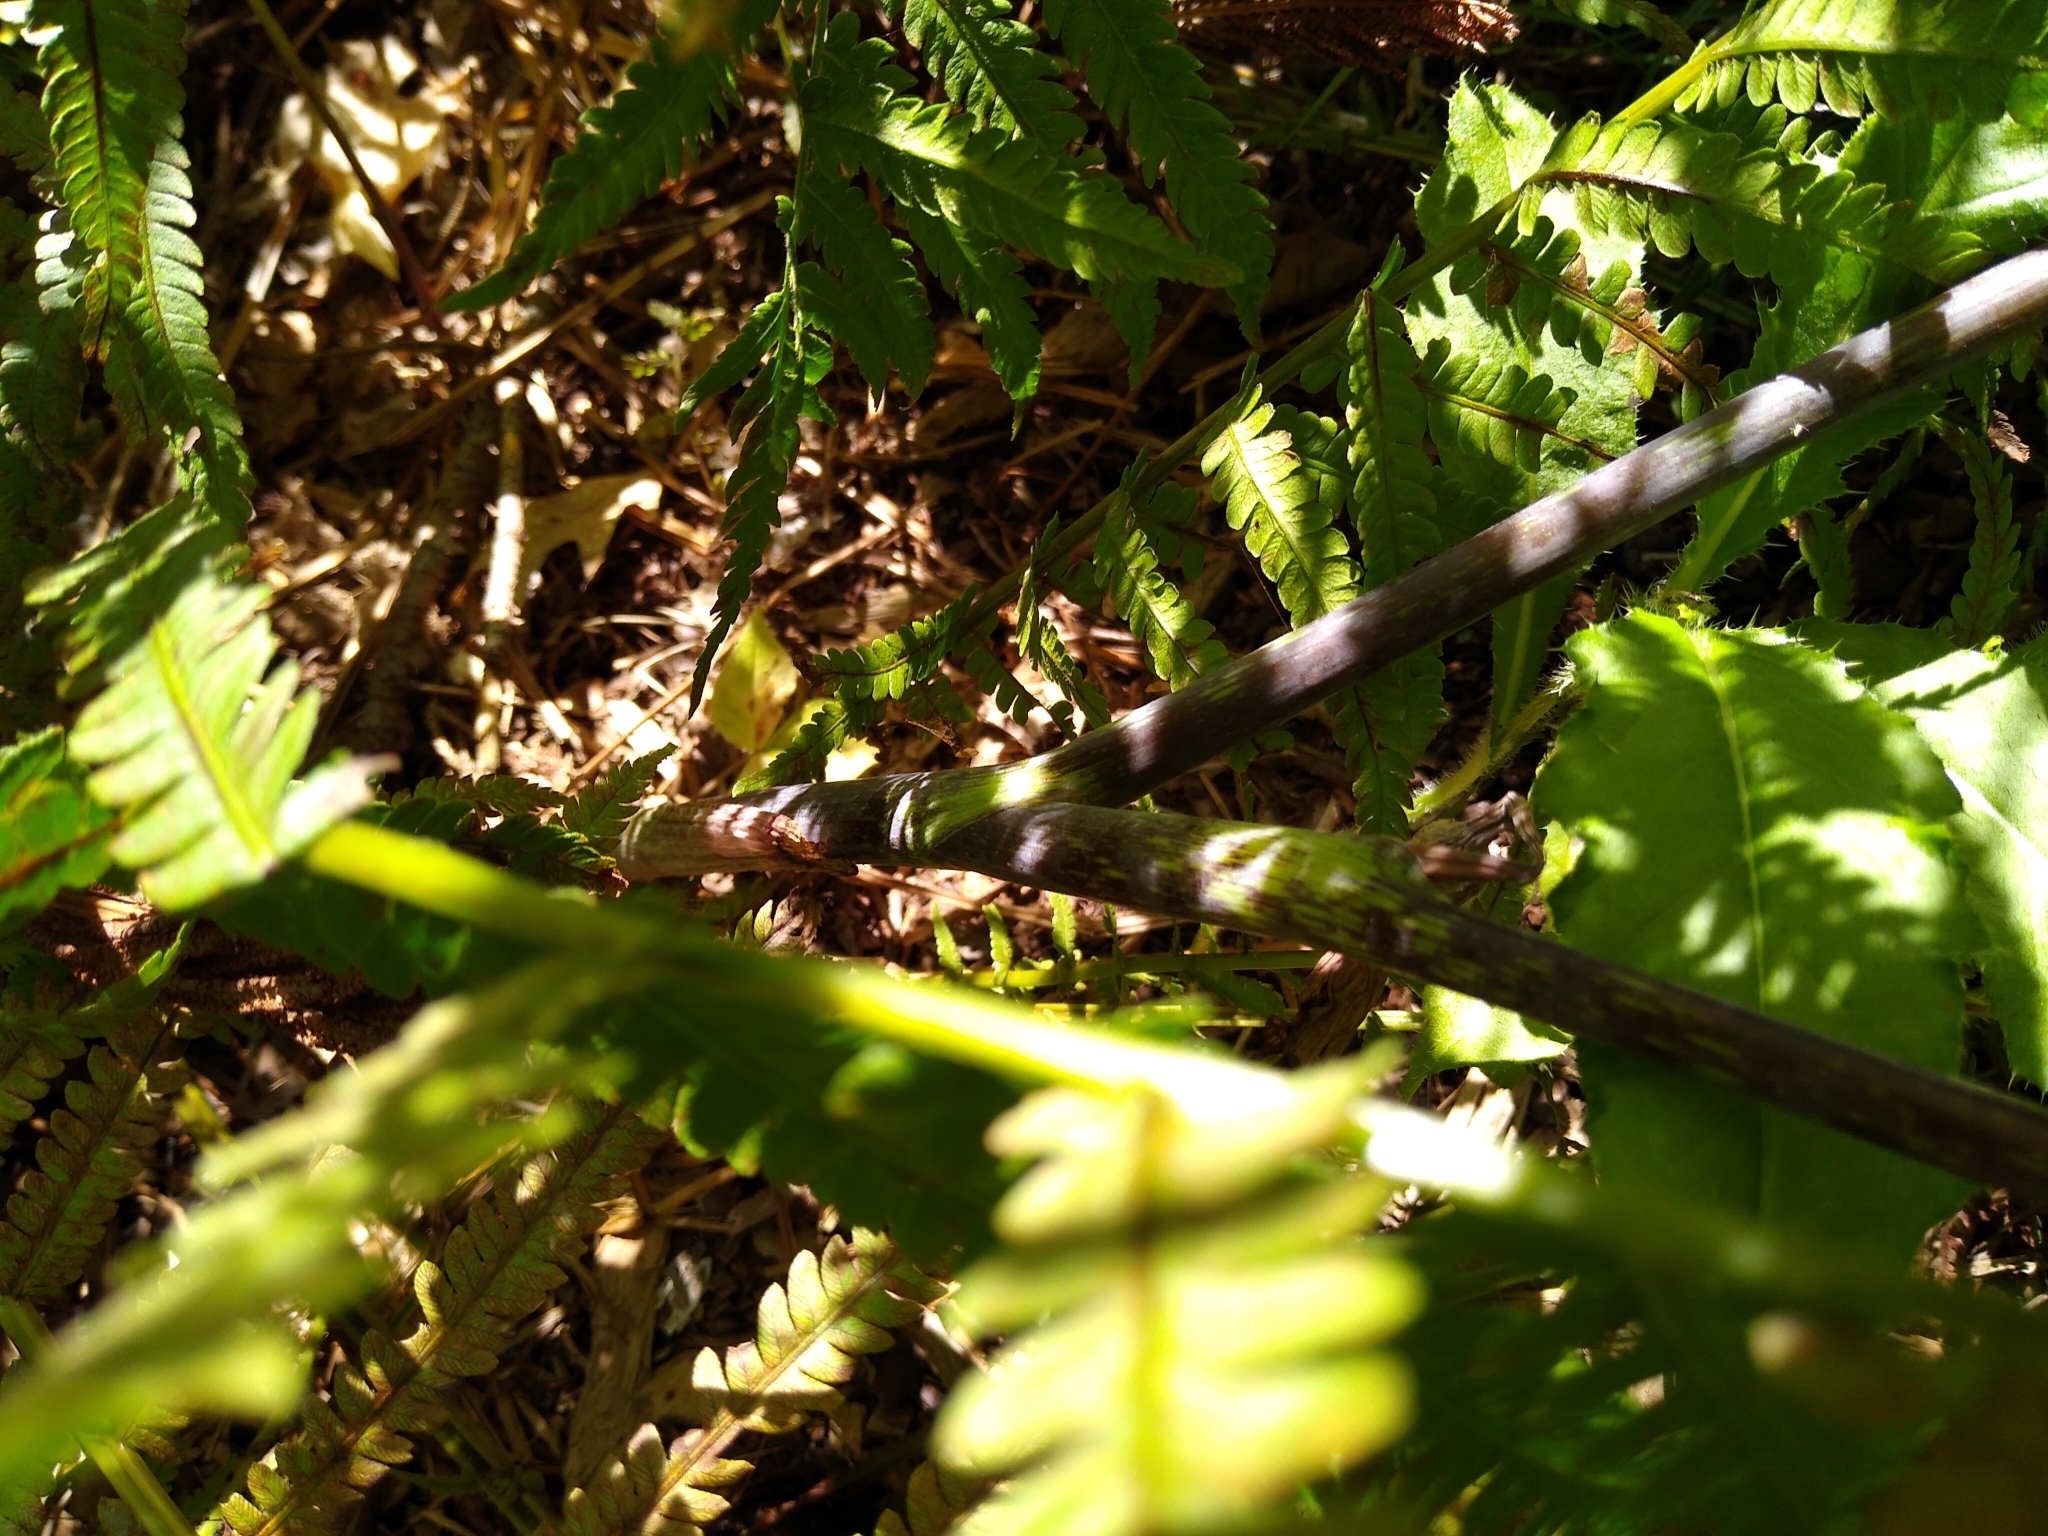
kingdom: Plantae
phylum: Tracheophyta
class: Liliopsida
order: Alismatales
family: Araceae
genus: Arisaema
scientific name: Arisaema triphyllum
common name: Jack-in-the-pulpit
